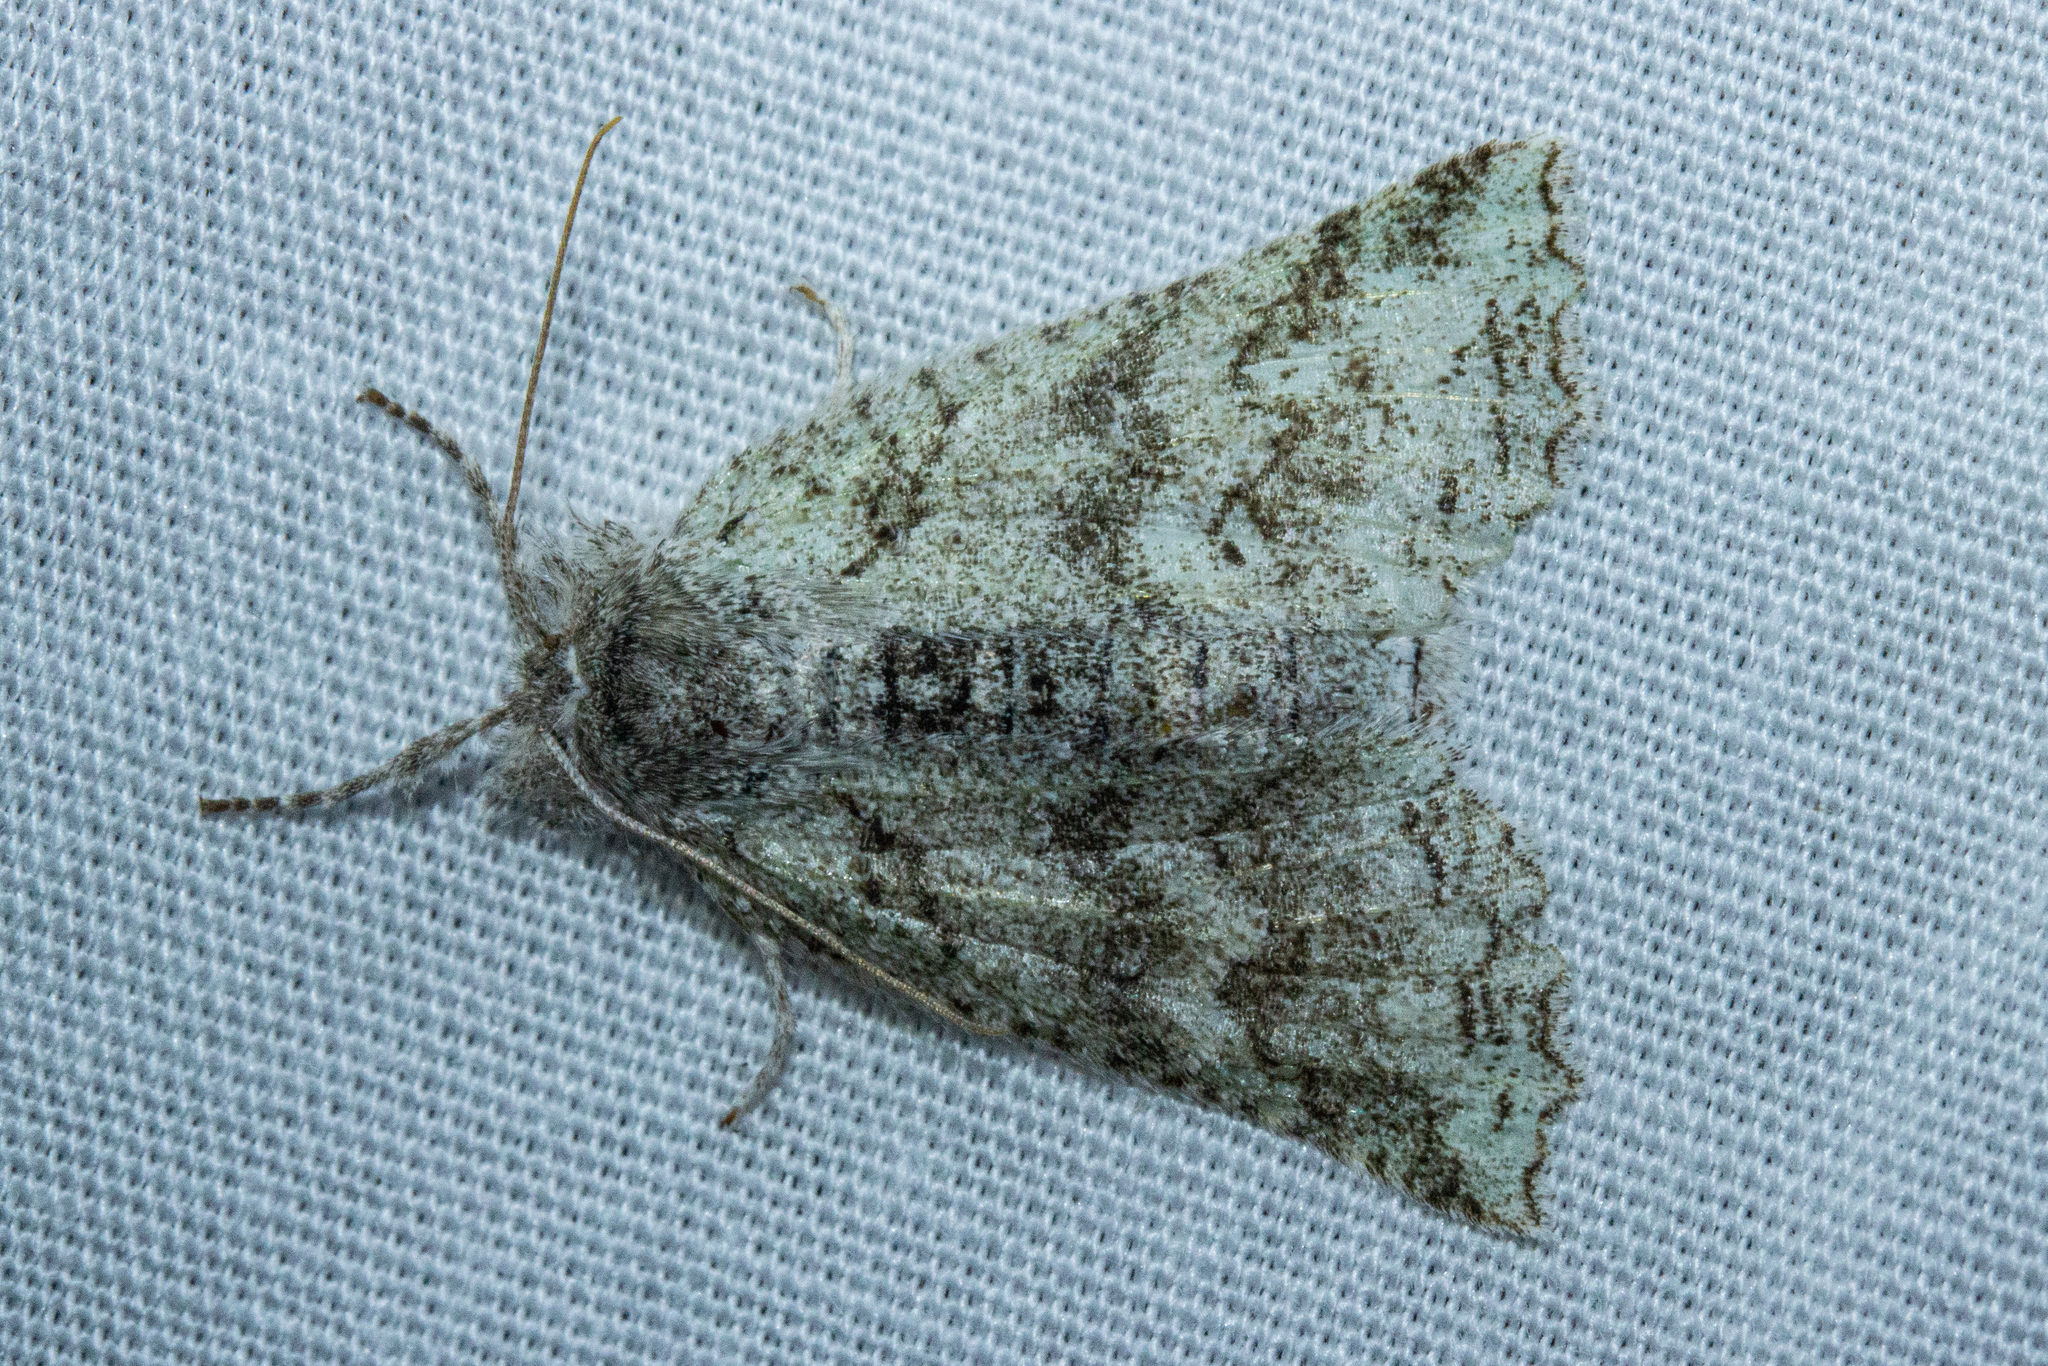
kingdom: Animalia
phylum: Arthropoda
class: Insecta
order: Lepidoptera
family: Geometridae
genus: Declana
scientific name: Declana niveata
